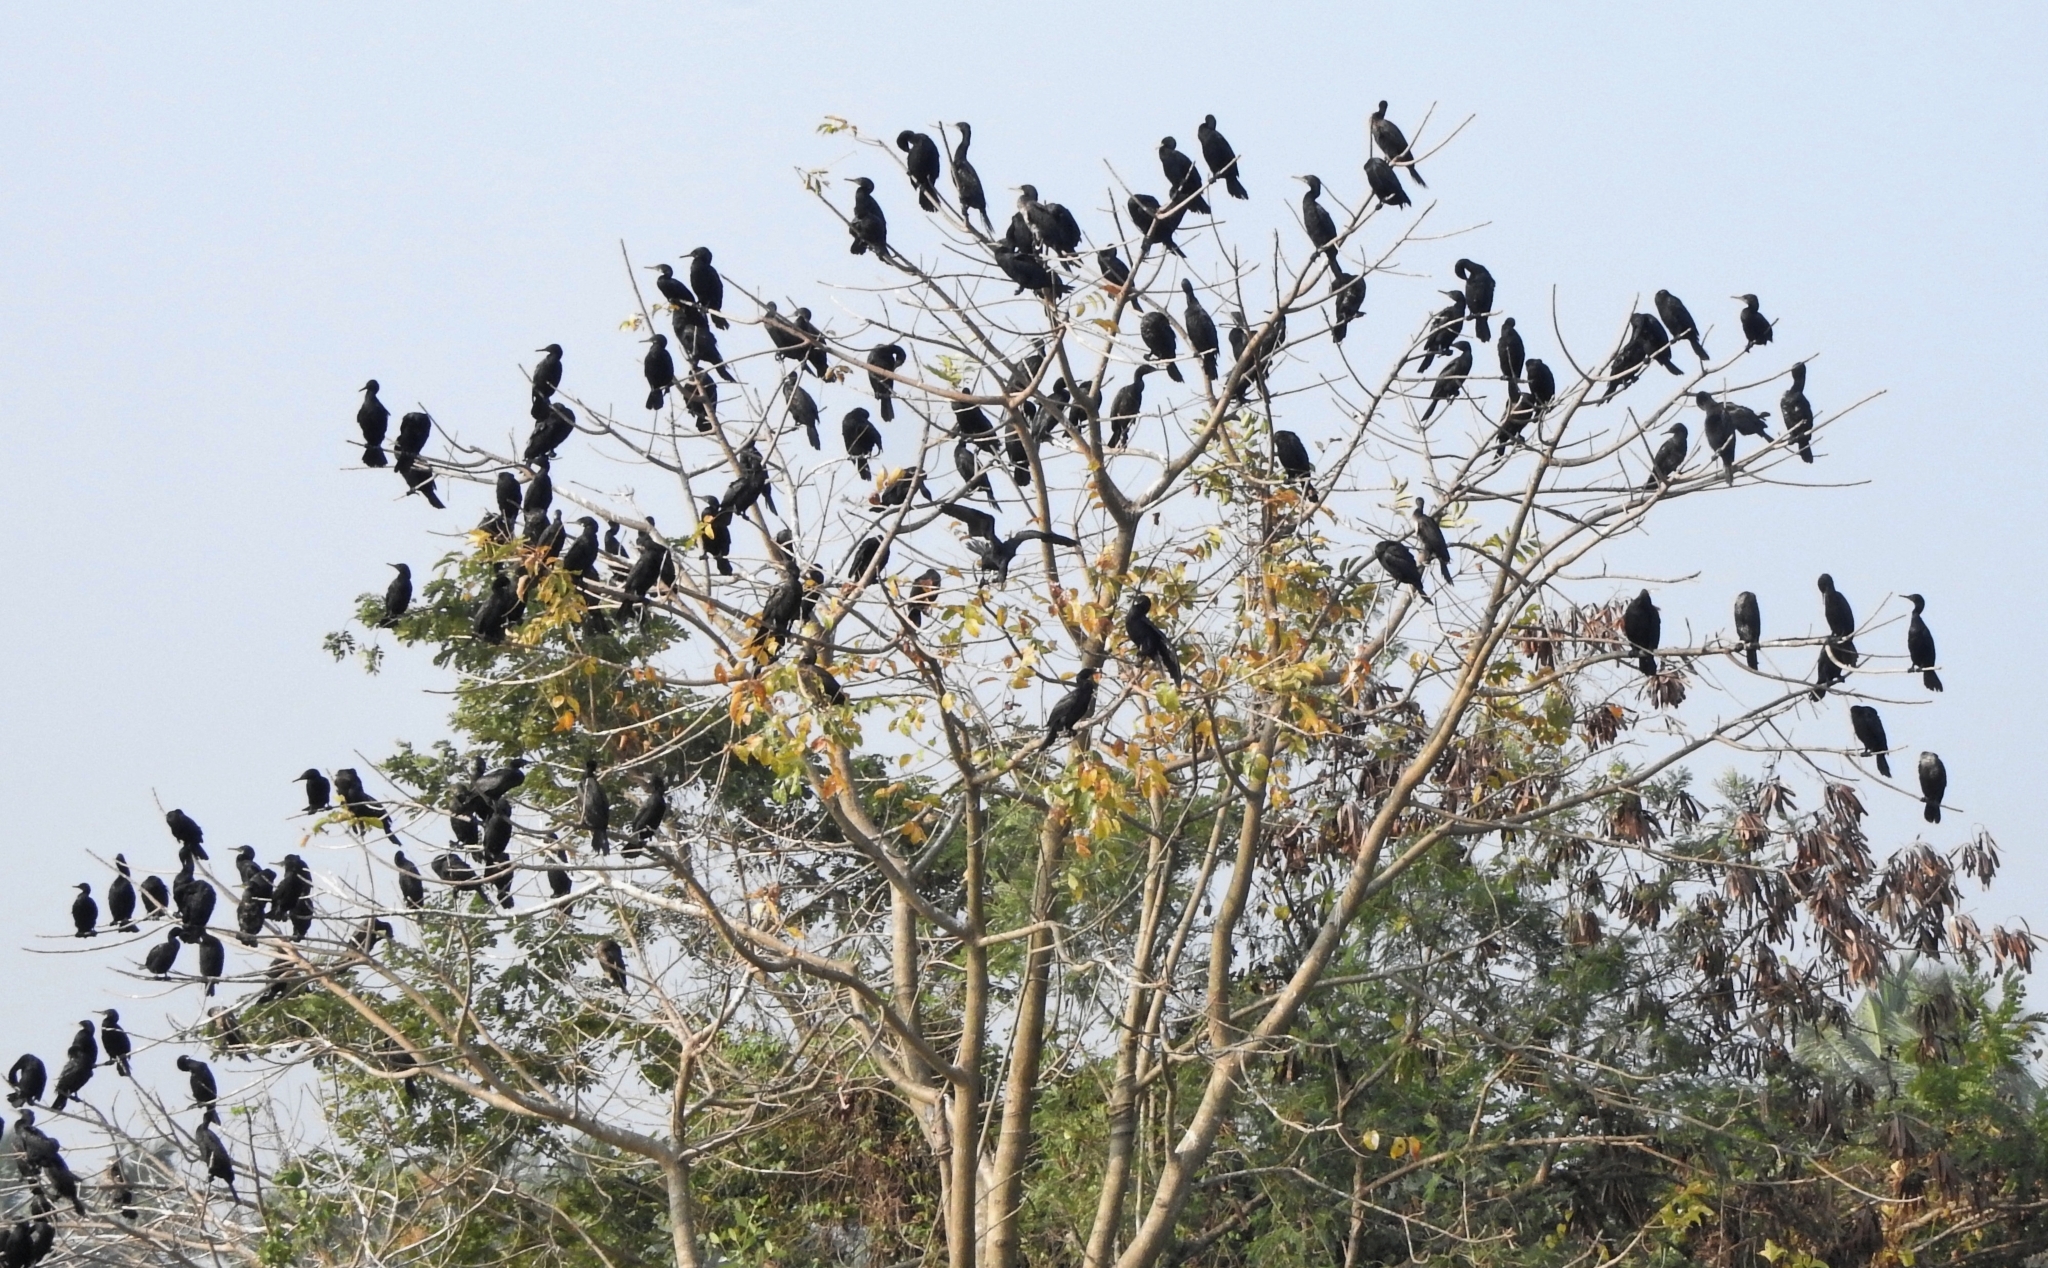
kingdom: Animalia
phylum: Chordata
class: Aves
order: Suliformes
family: Phalacrocoracidae
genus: Phalacrocorax
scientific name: Phalacrocorax fuscicollis
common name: Indian cormorant
